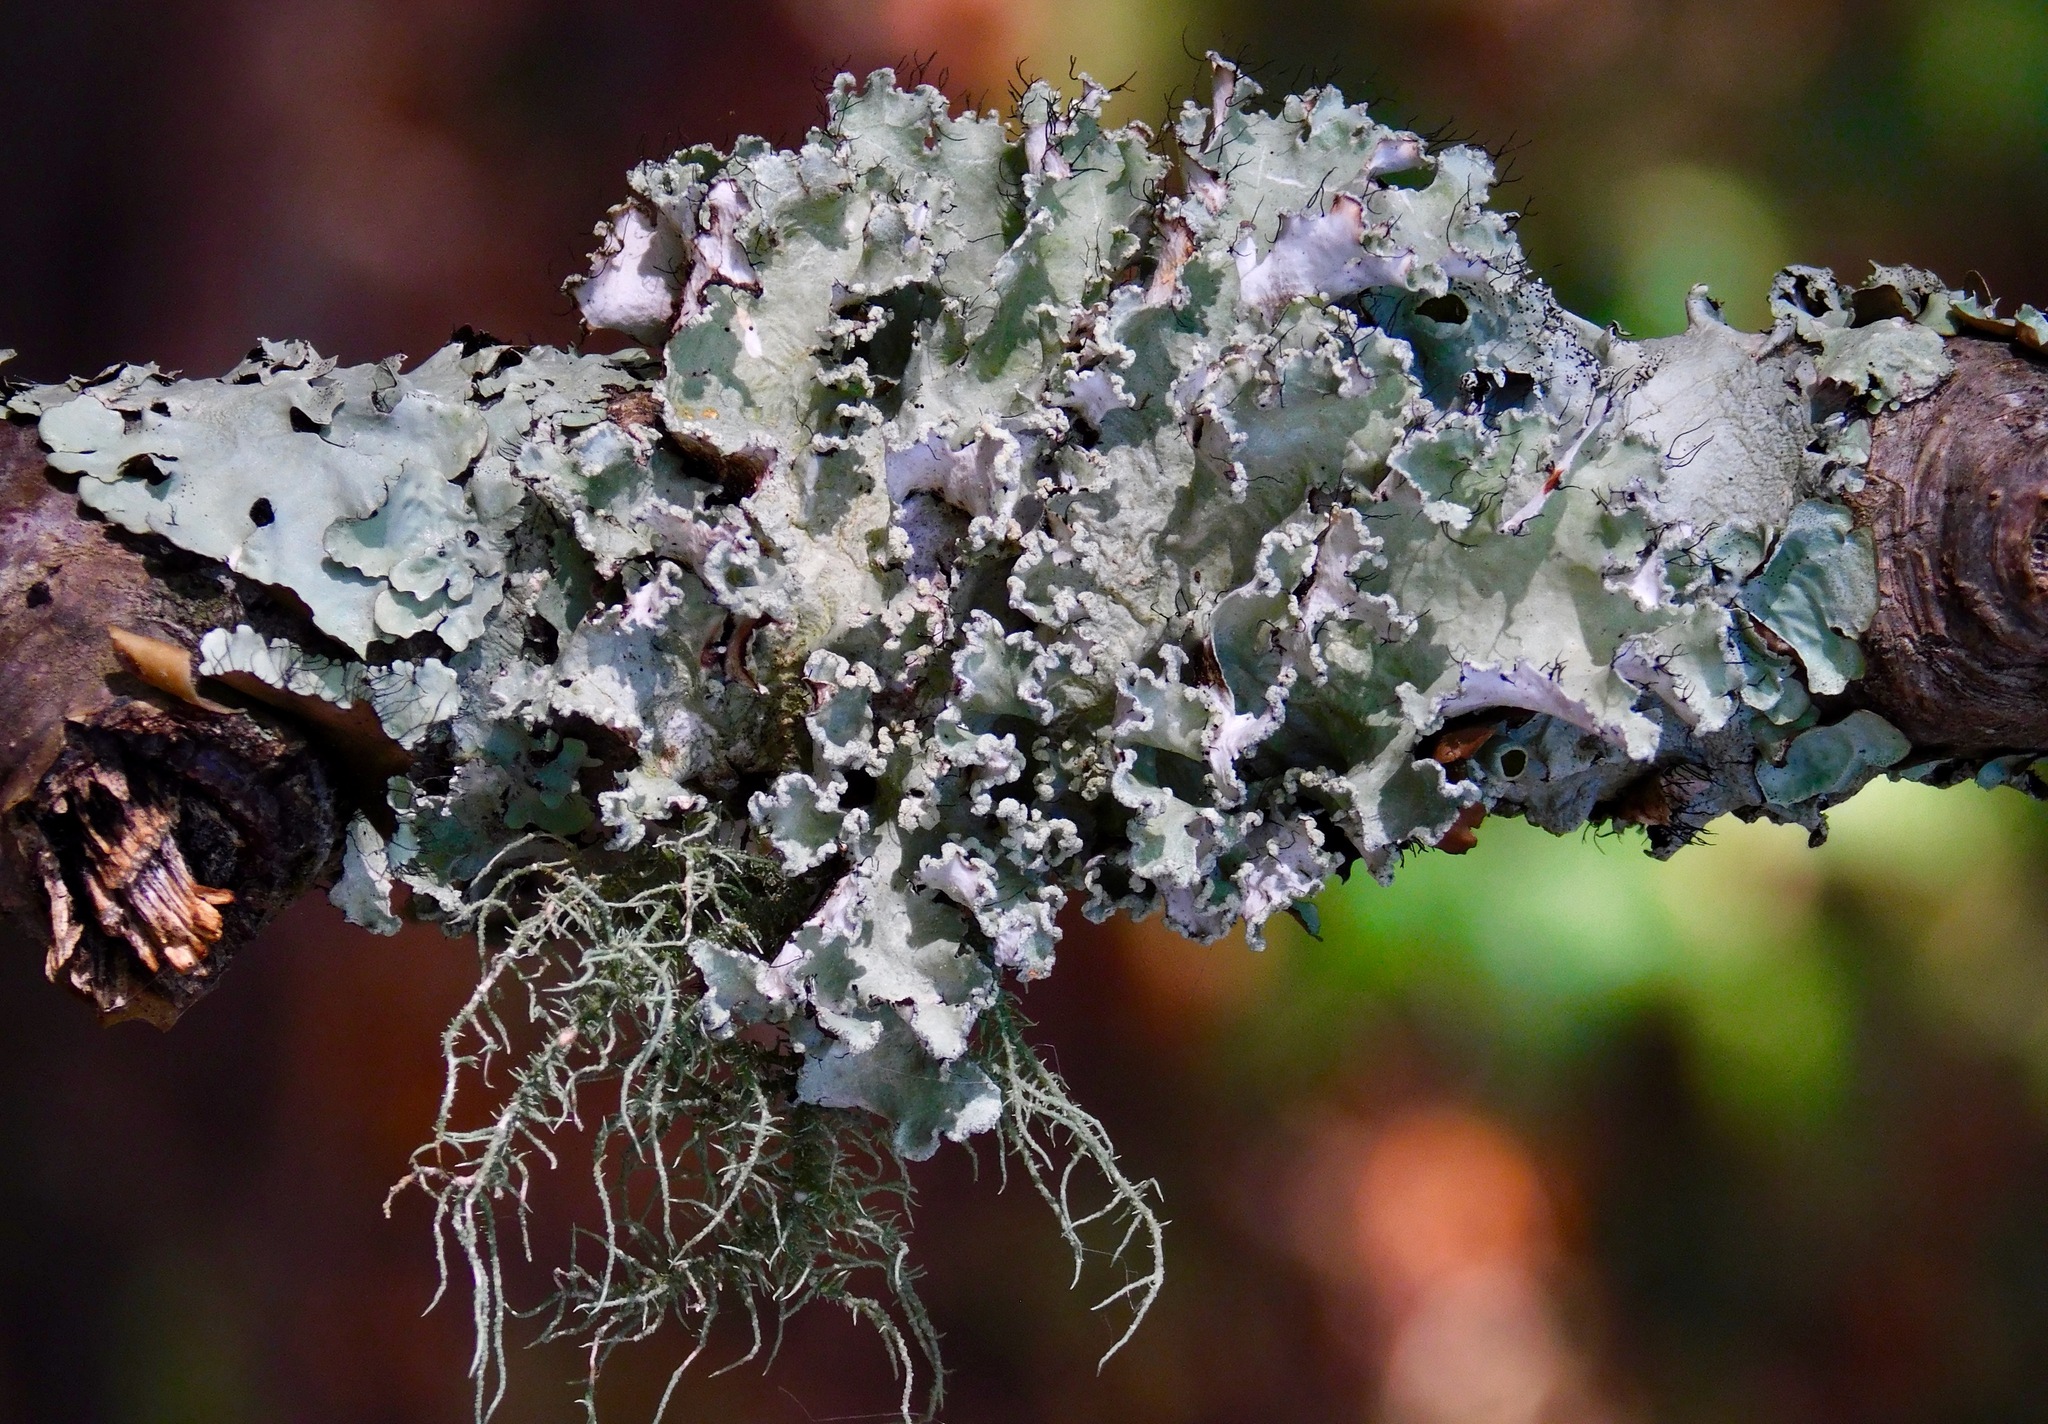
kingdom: Fungi
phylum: Ascomycota
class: Lecanoromycetes
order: Lecanorales
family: Parmeliaceae
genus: Parmotrema
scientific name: Parmotrema hypotropum
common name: Powdered ruffle lichen
